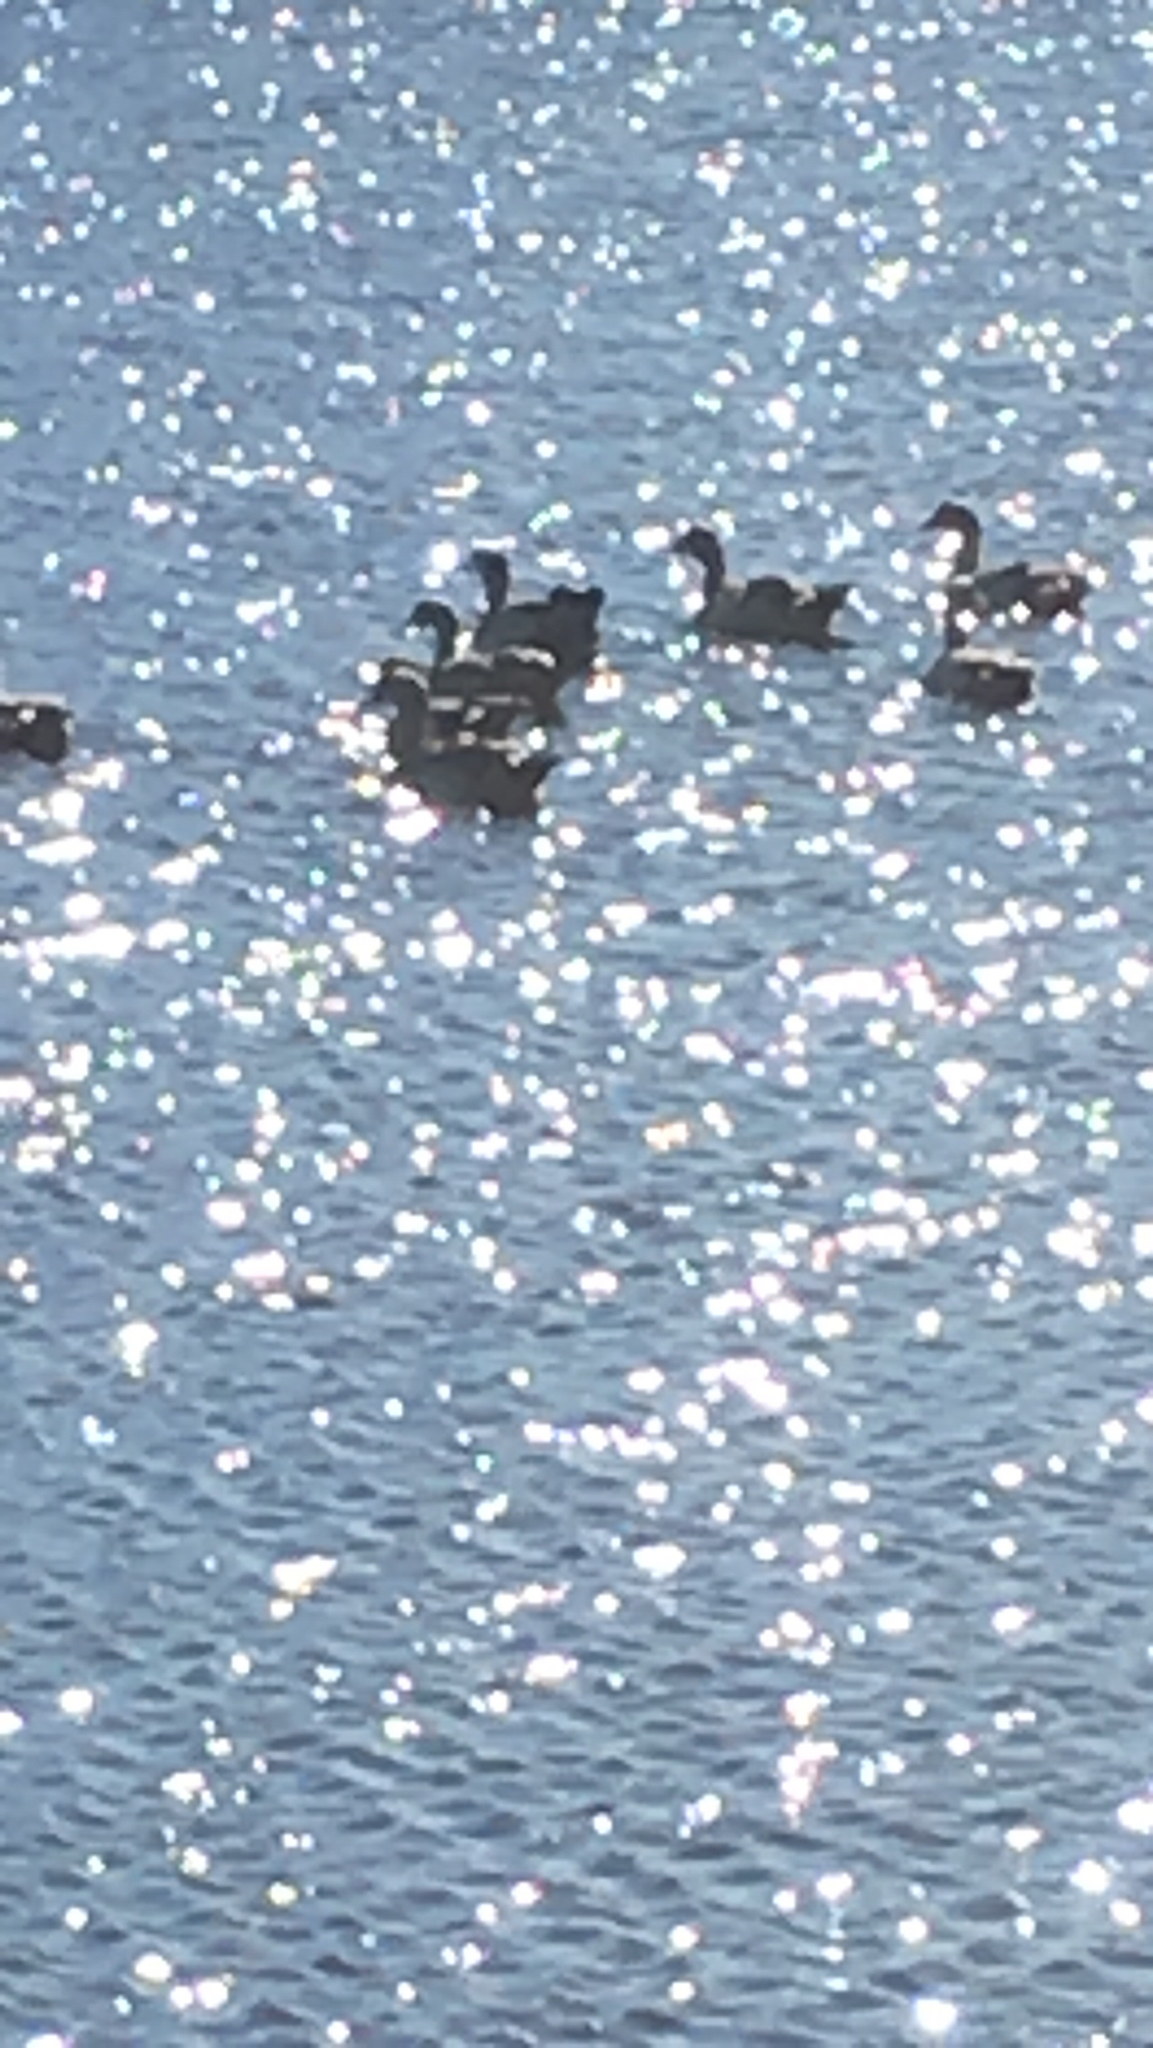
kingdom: Animalia
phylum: Chordata
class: Aves
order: Anseriformes
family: Anatidae
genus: Alopochen
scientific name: Alopochen aegyptiaca
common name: Egyptian goose
